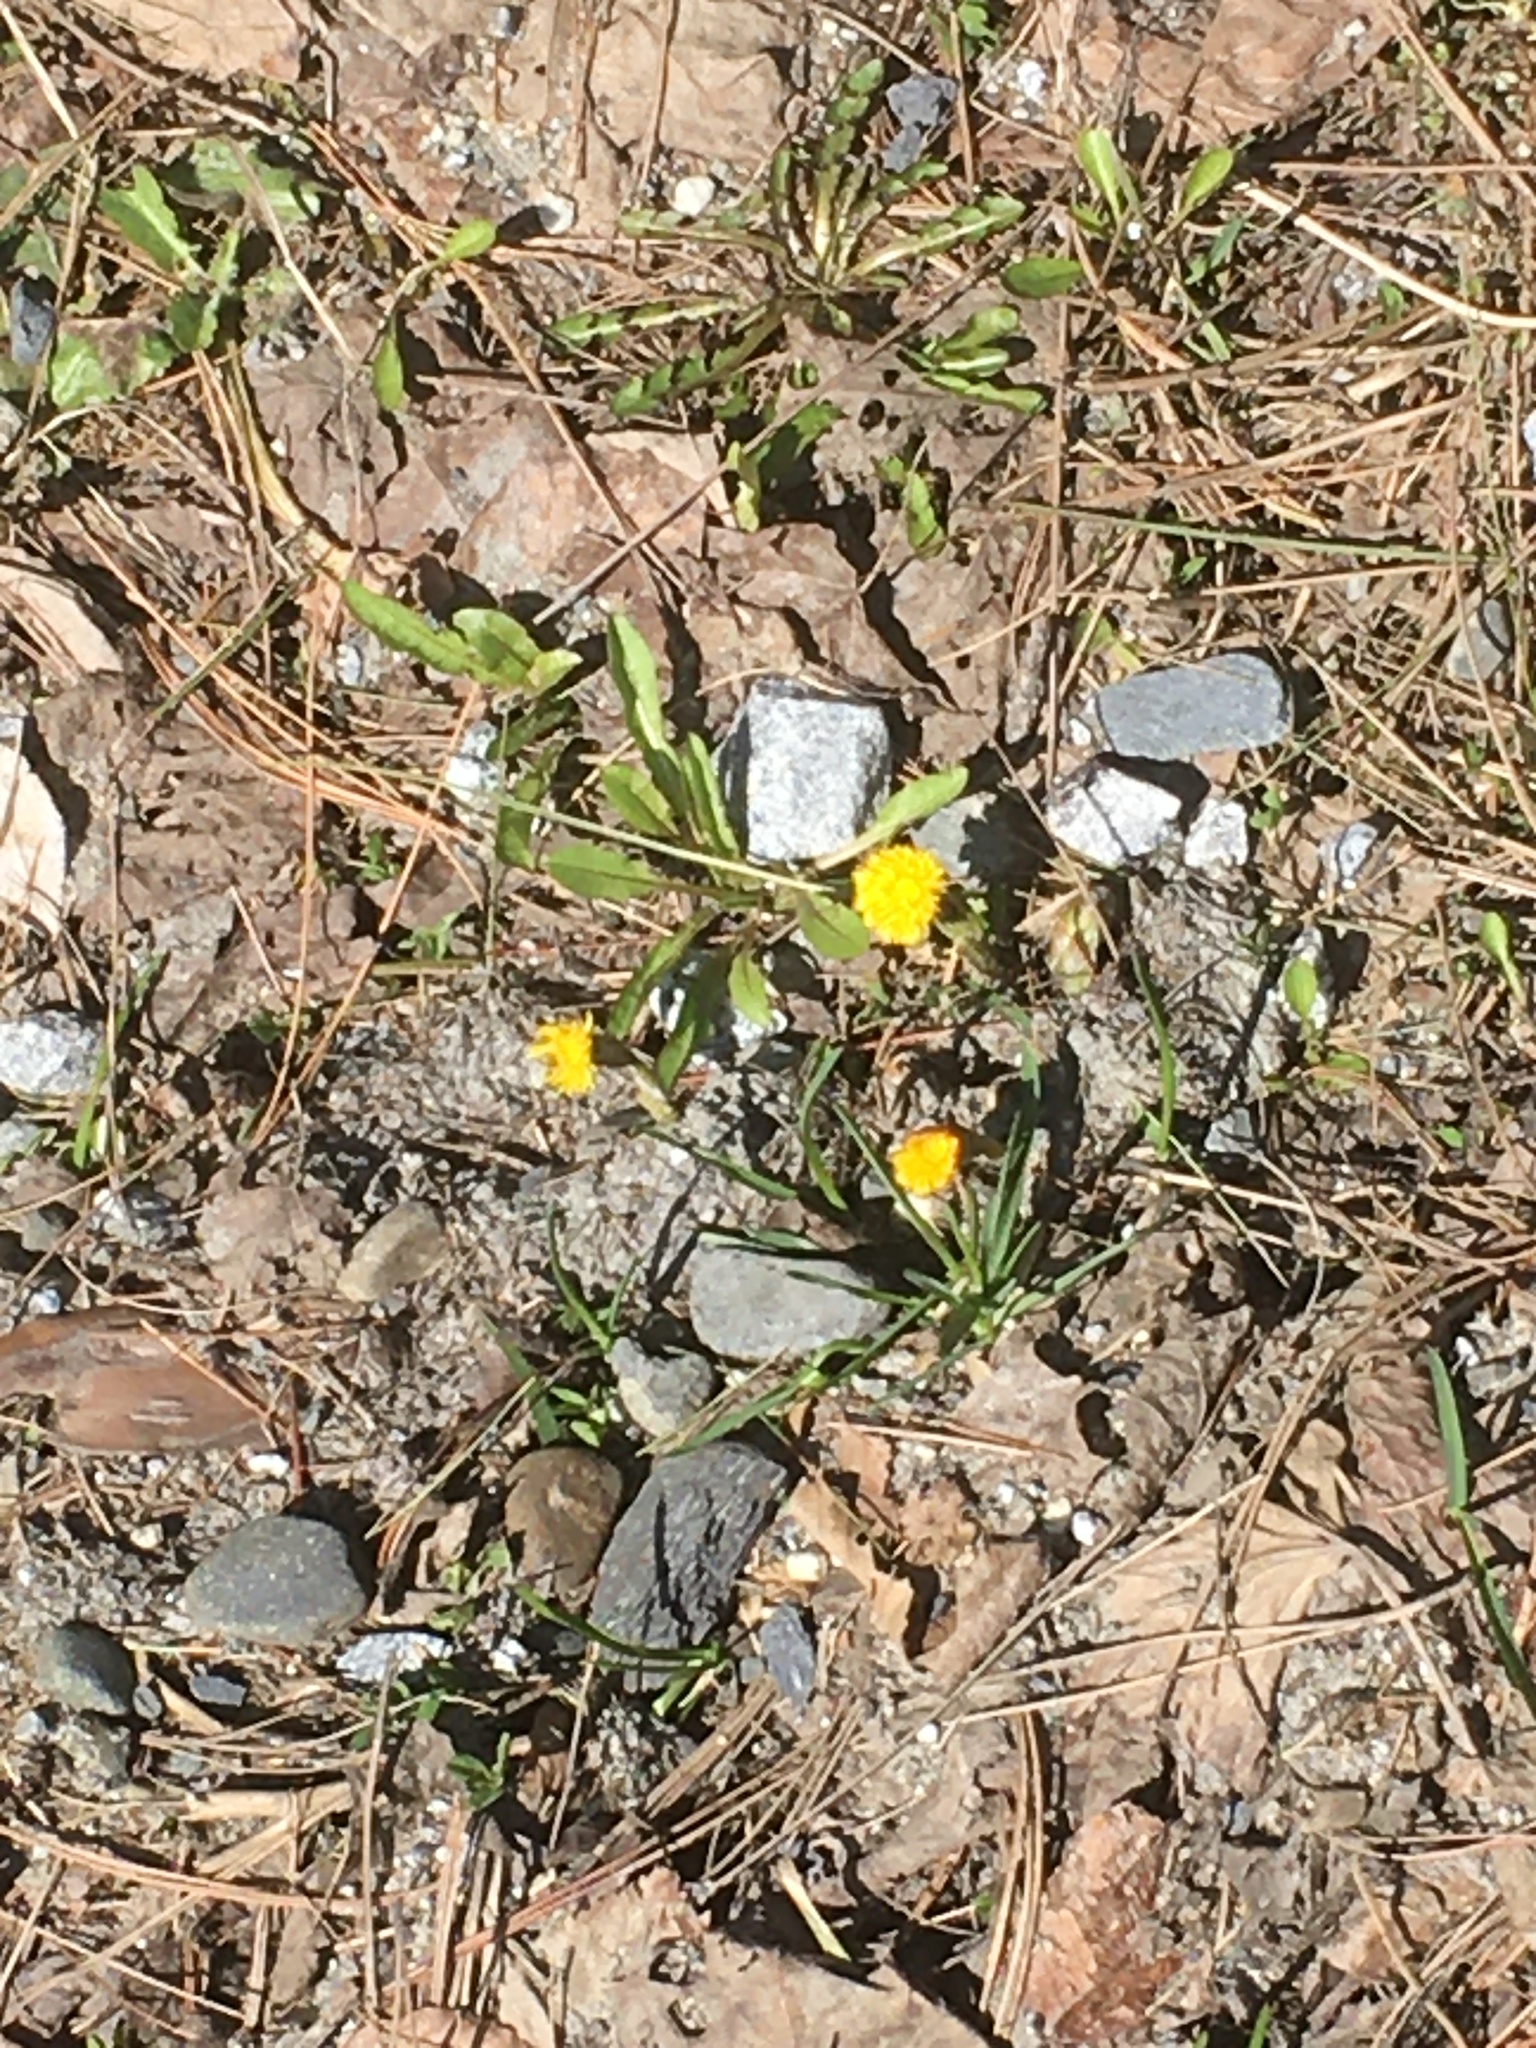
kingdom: Plantae
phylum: Tracheophyta
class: Magnoliopsida
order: Asterales
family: Asteraceae
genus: Tussilago
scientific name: Tussilago farfara
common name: Coltsfoot
